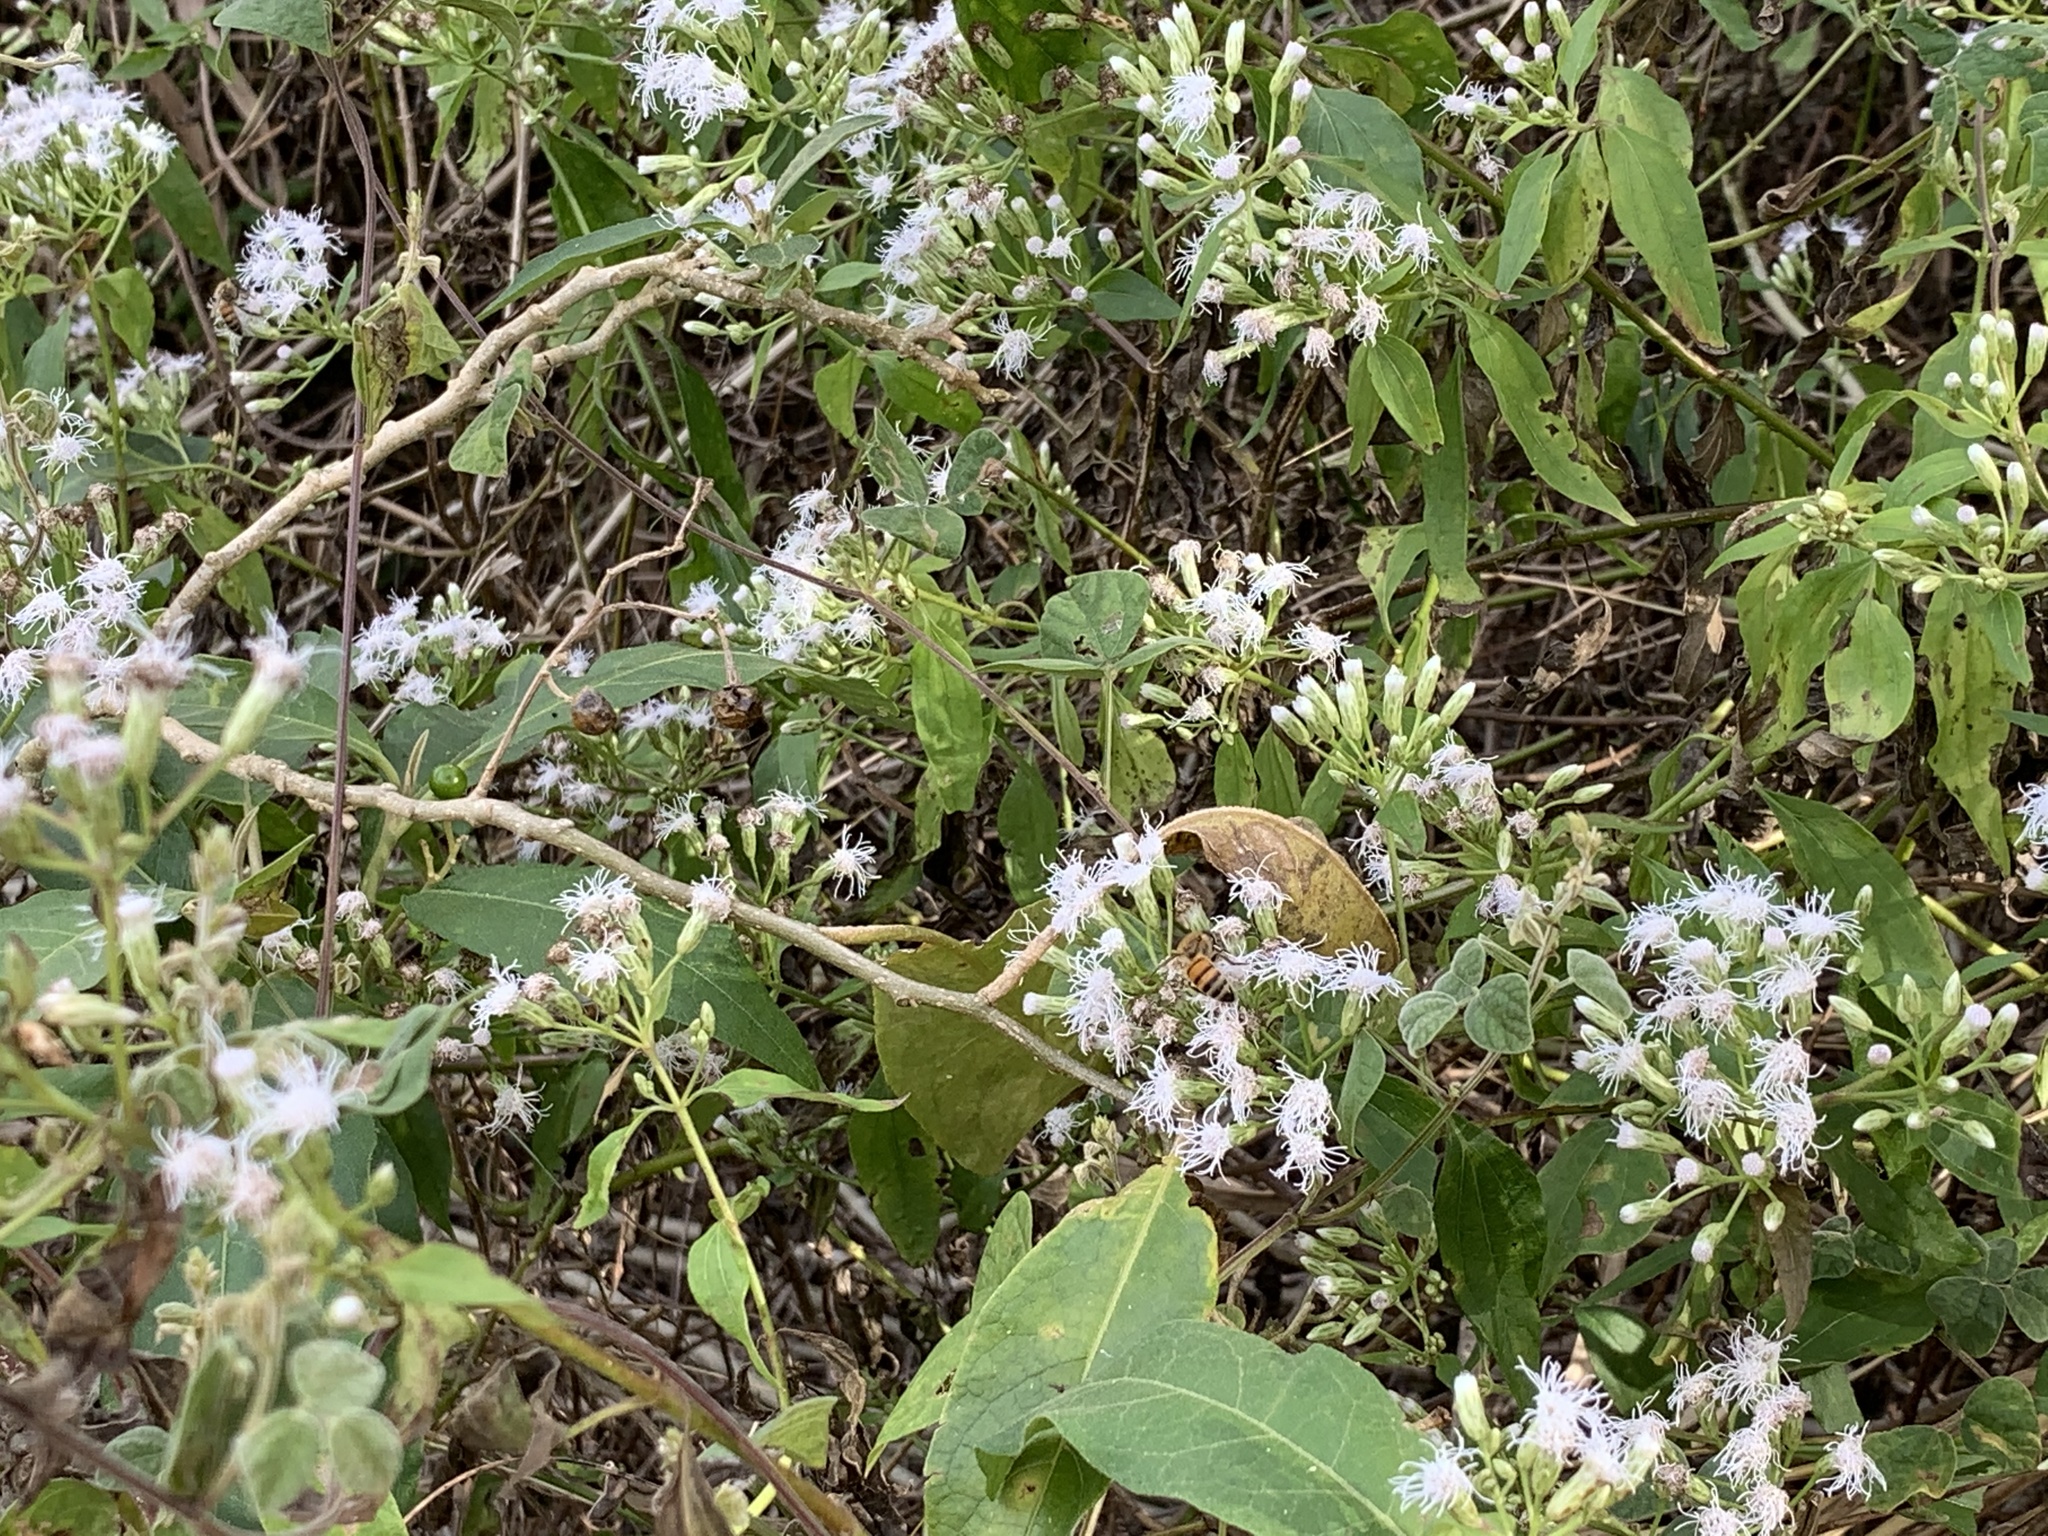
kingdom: Plantae
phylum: Tracheophyta
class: Magnoliopsida
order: Asterales
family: Asteraceae
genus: Chromolaena
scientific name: Chromolaena odorata
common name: Siamweed
